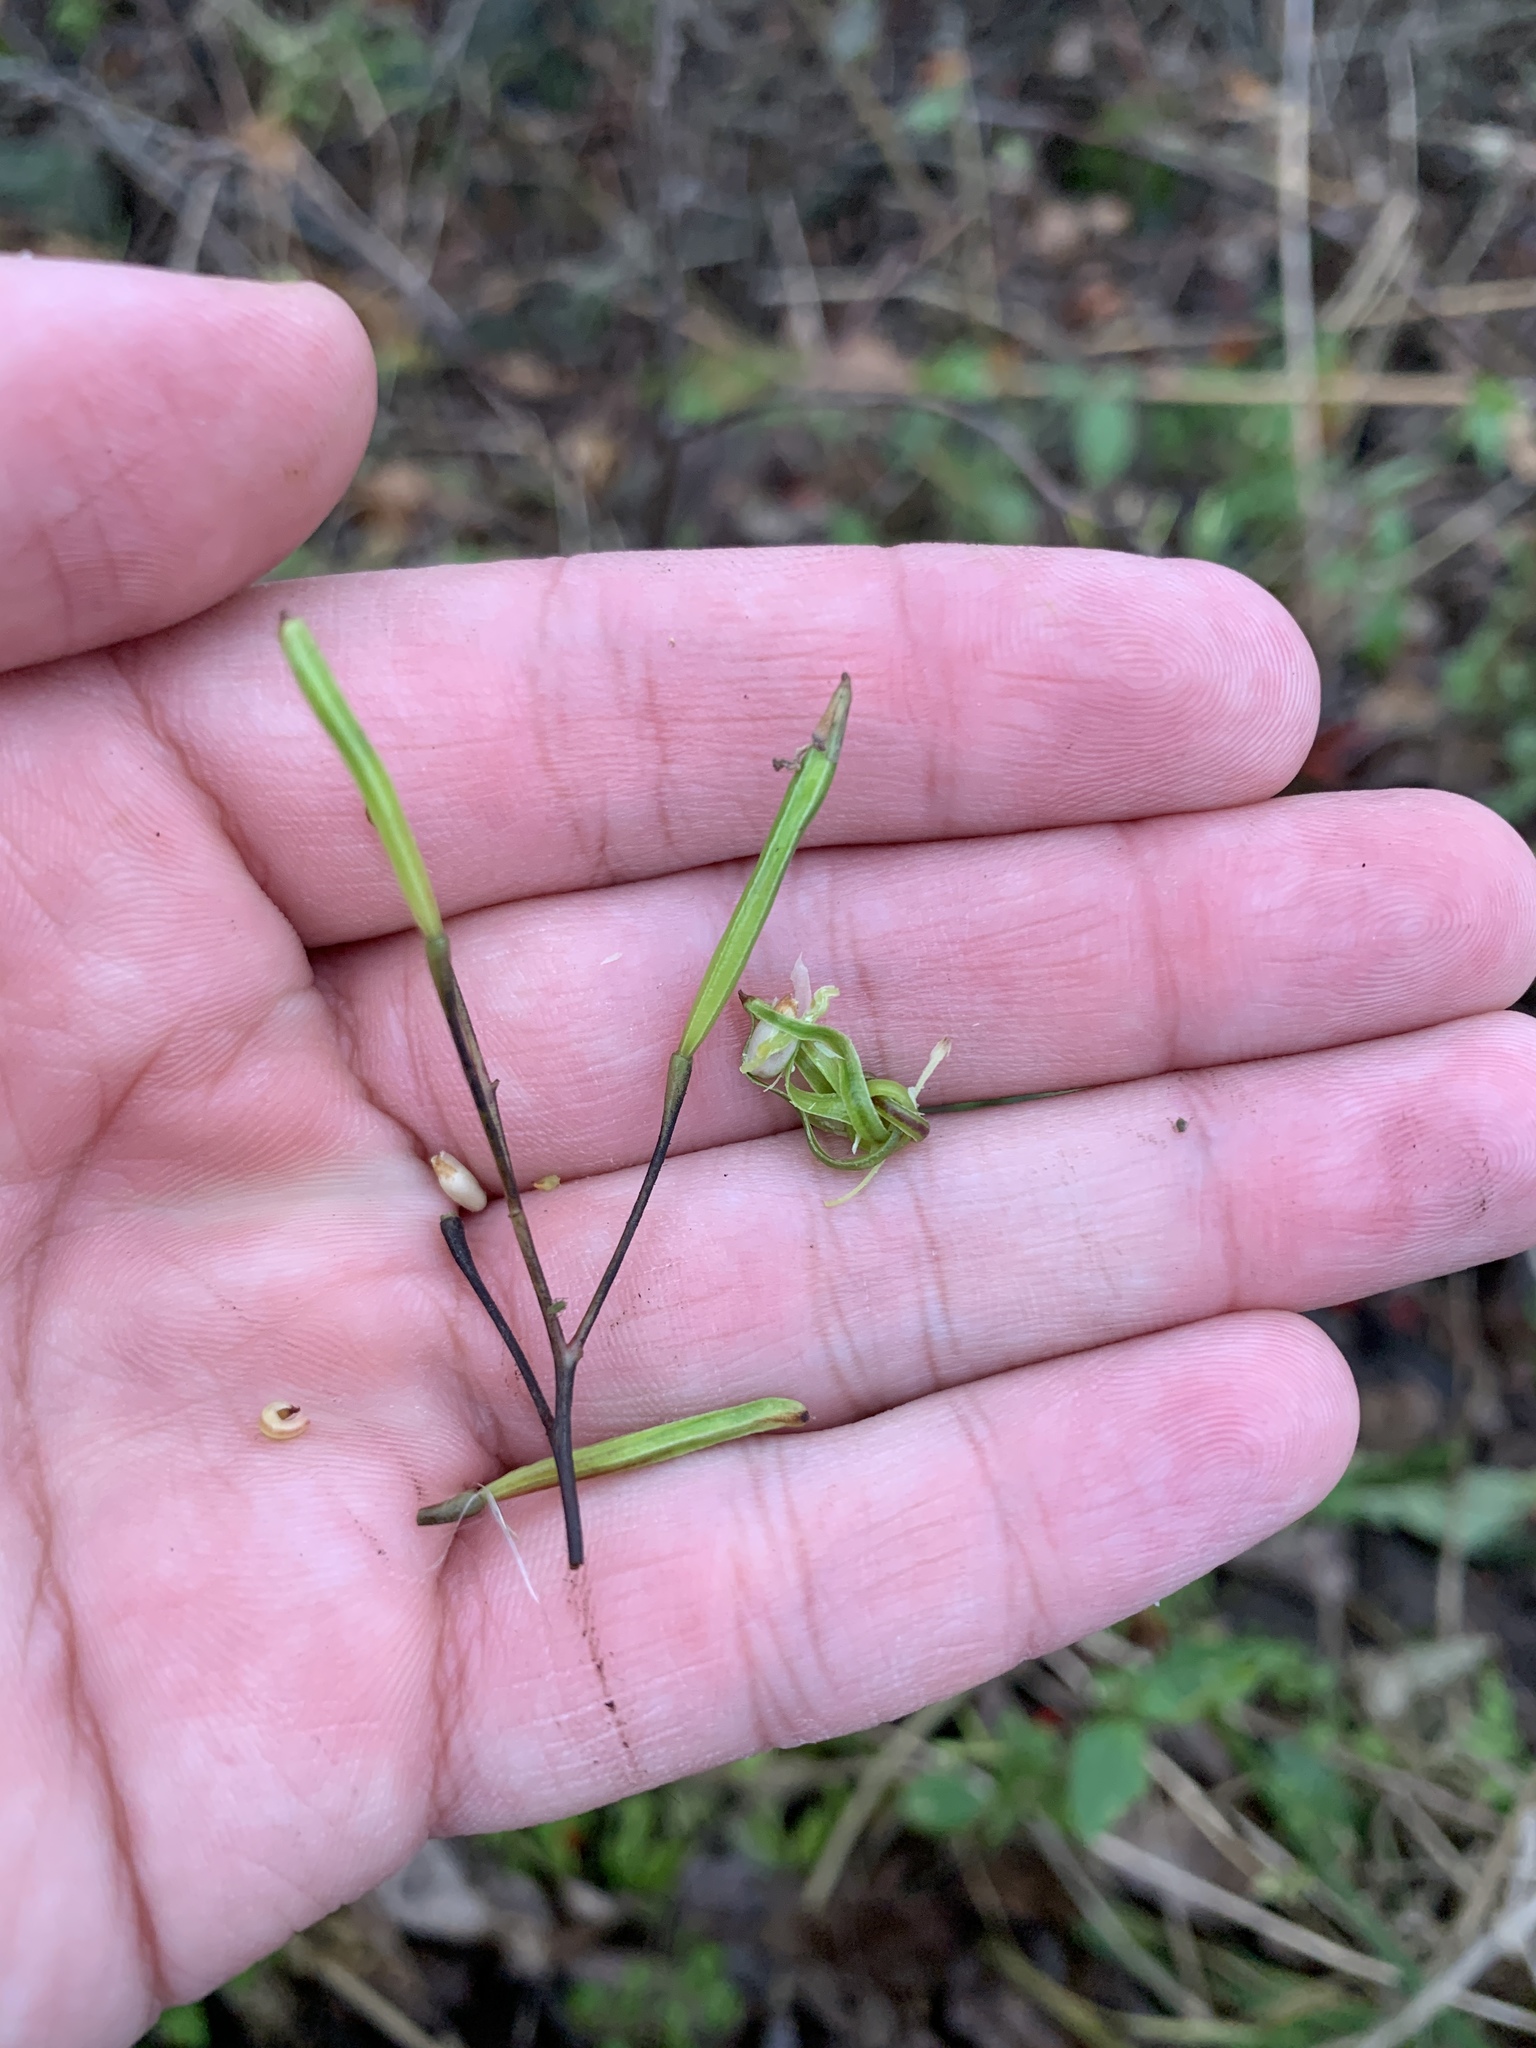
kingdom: Plantae
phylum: Tracheophyta
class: Magnoliopsida
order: Ericales
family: Balsaminaceae
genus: Impatiens
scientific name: Impatiens parviflora
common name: Small balsam
